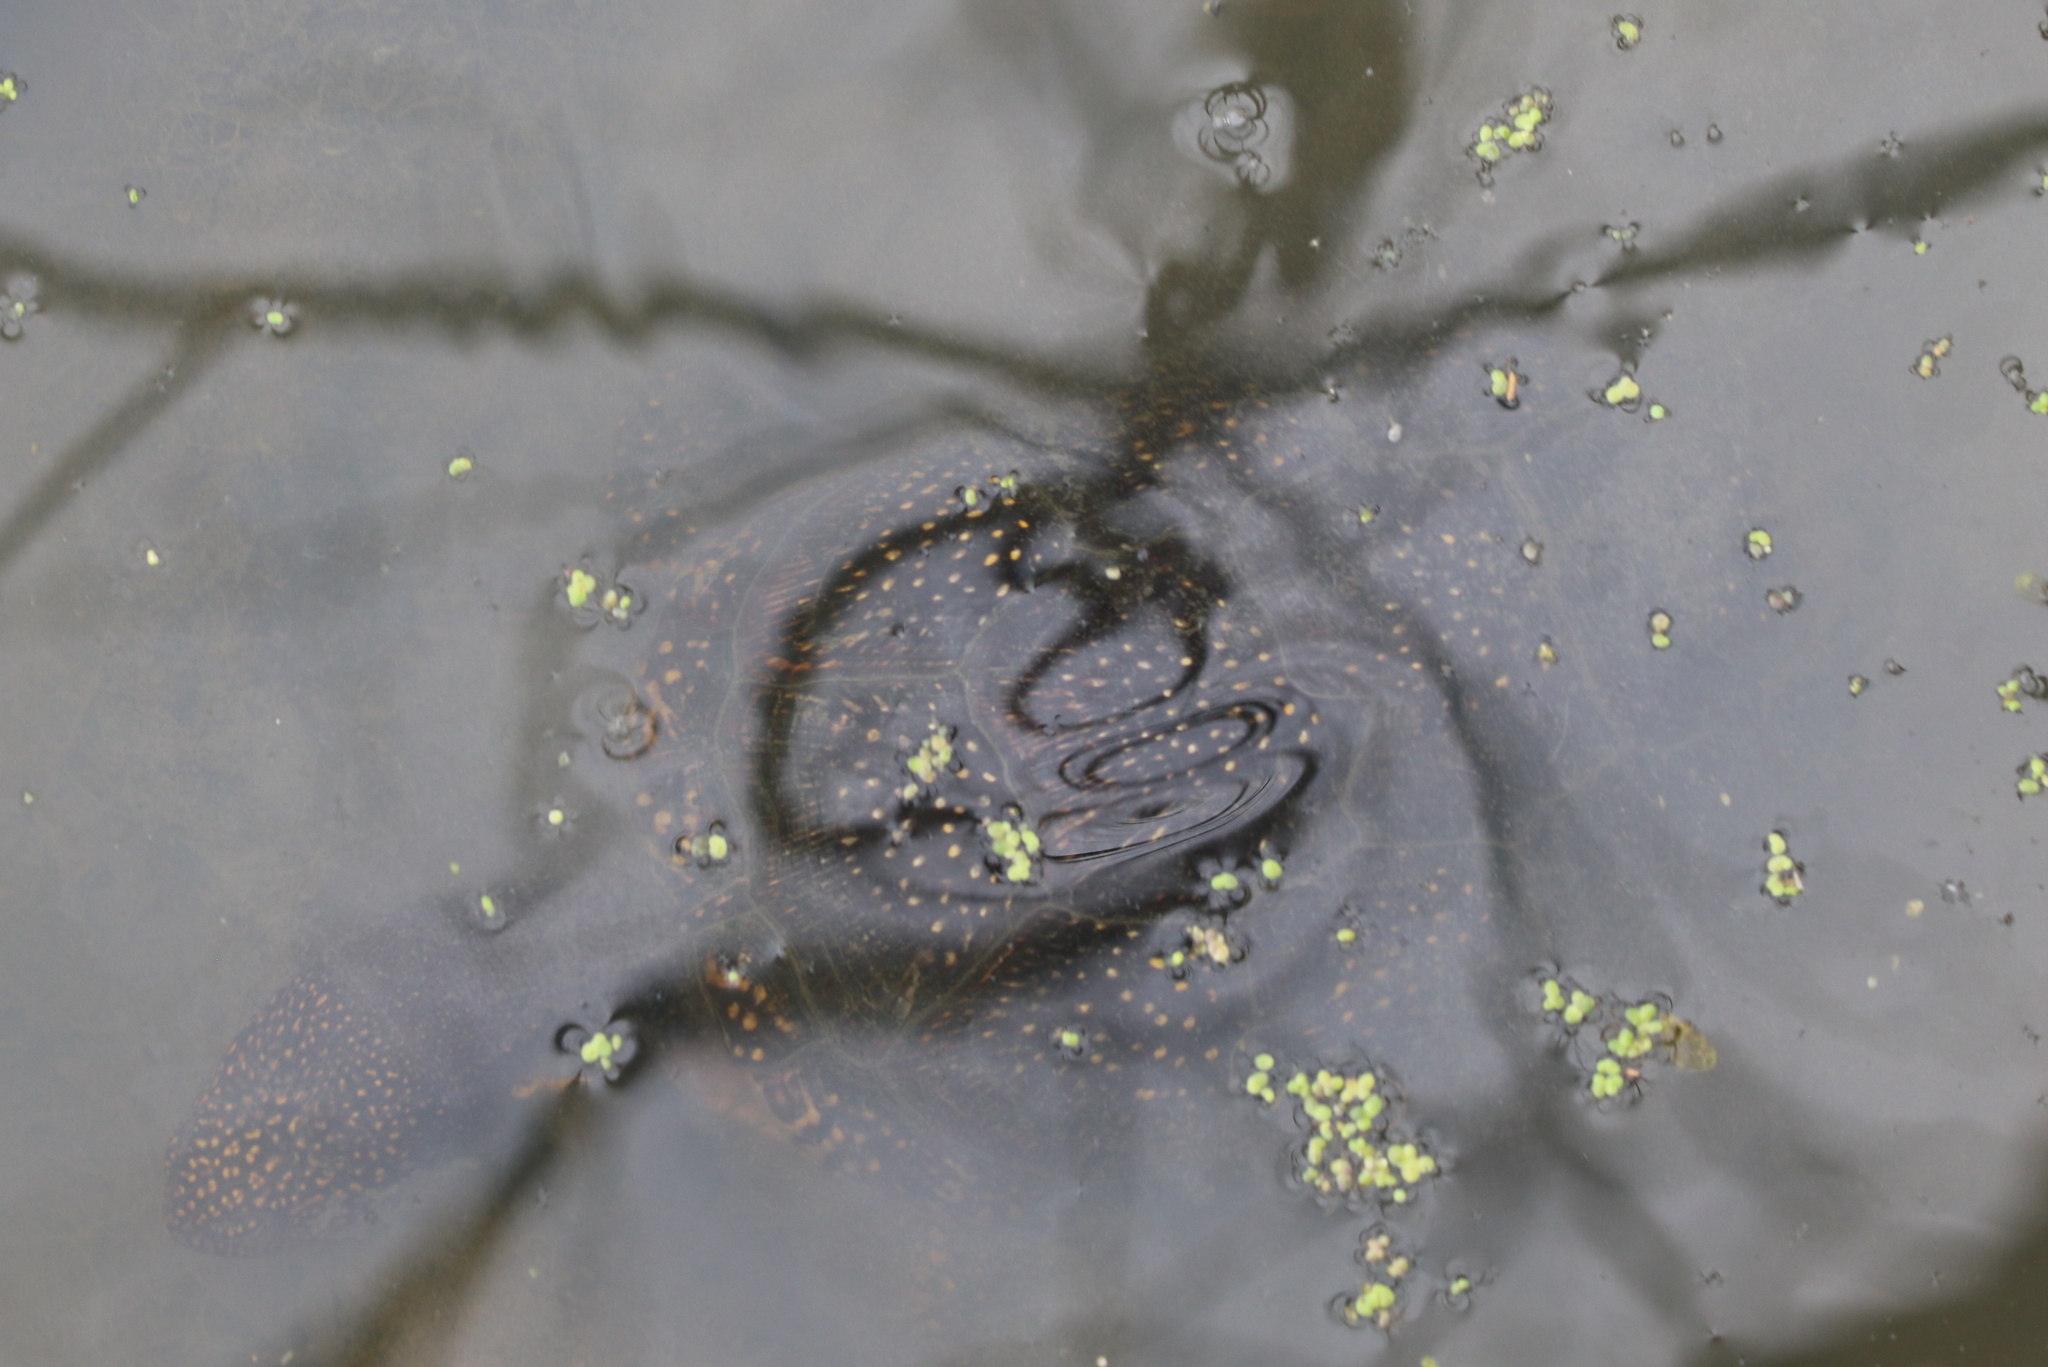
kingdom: Animalia
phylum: Chordata
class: Testudines
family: Emydidae
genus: Emys
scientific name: Emys blandingii
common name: Blanding's turtle
